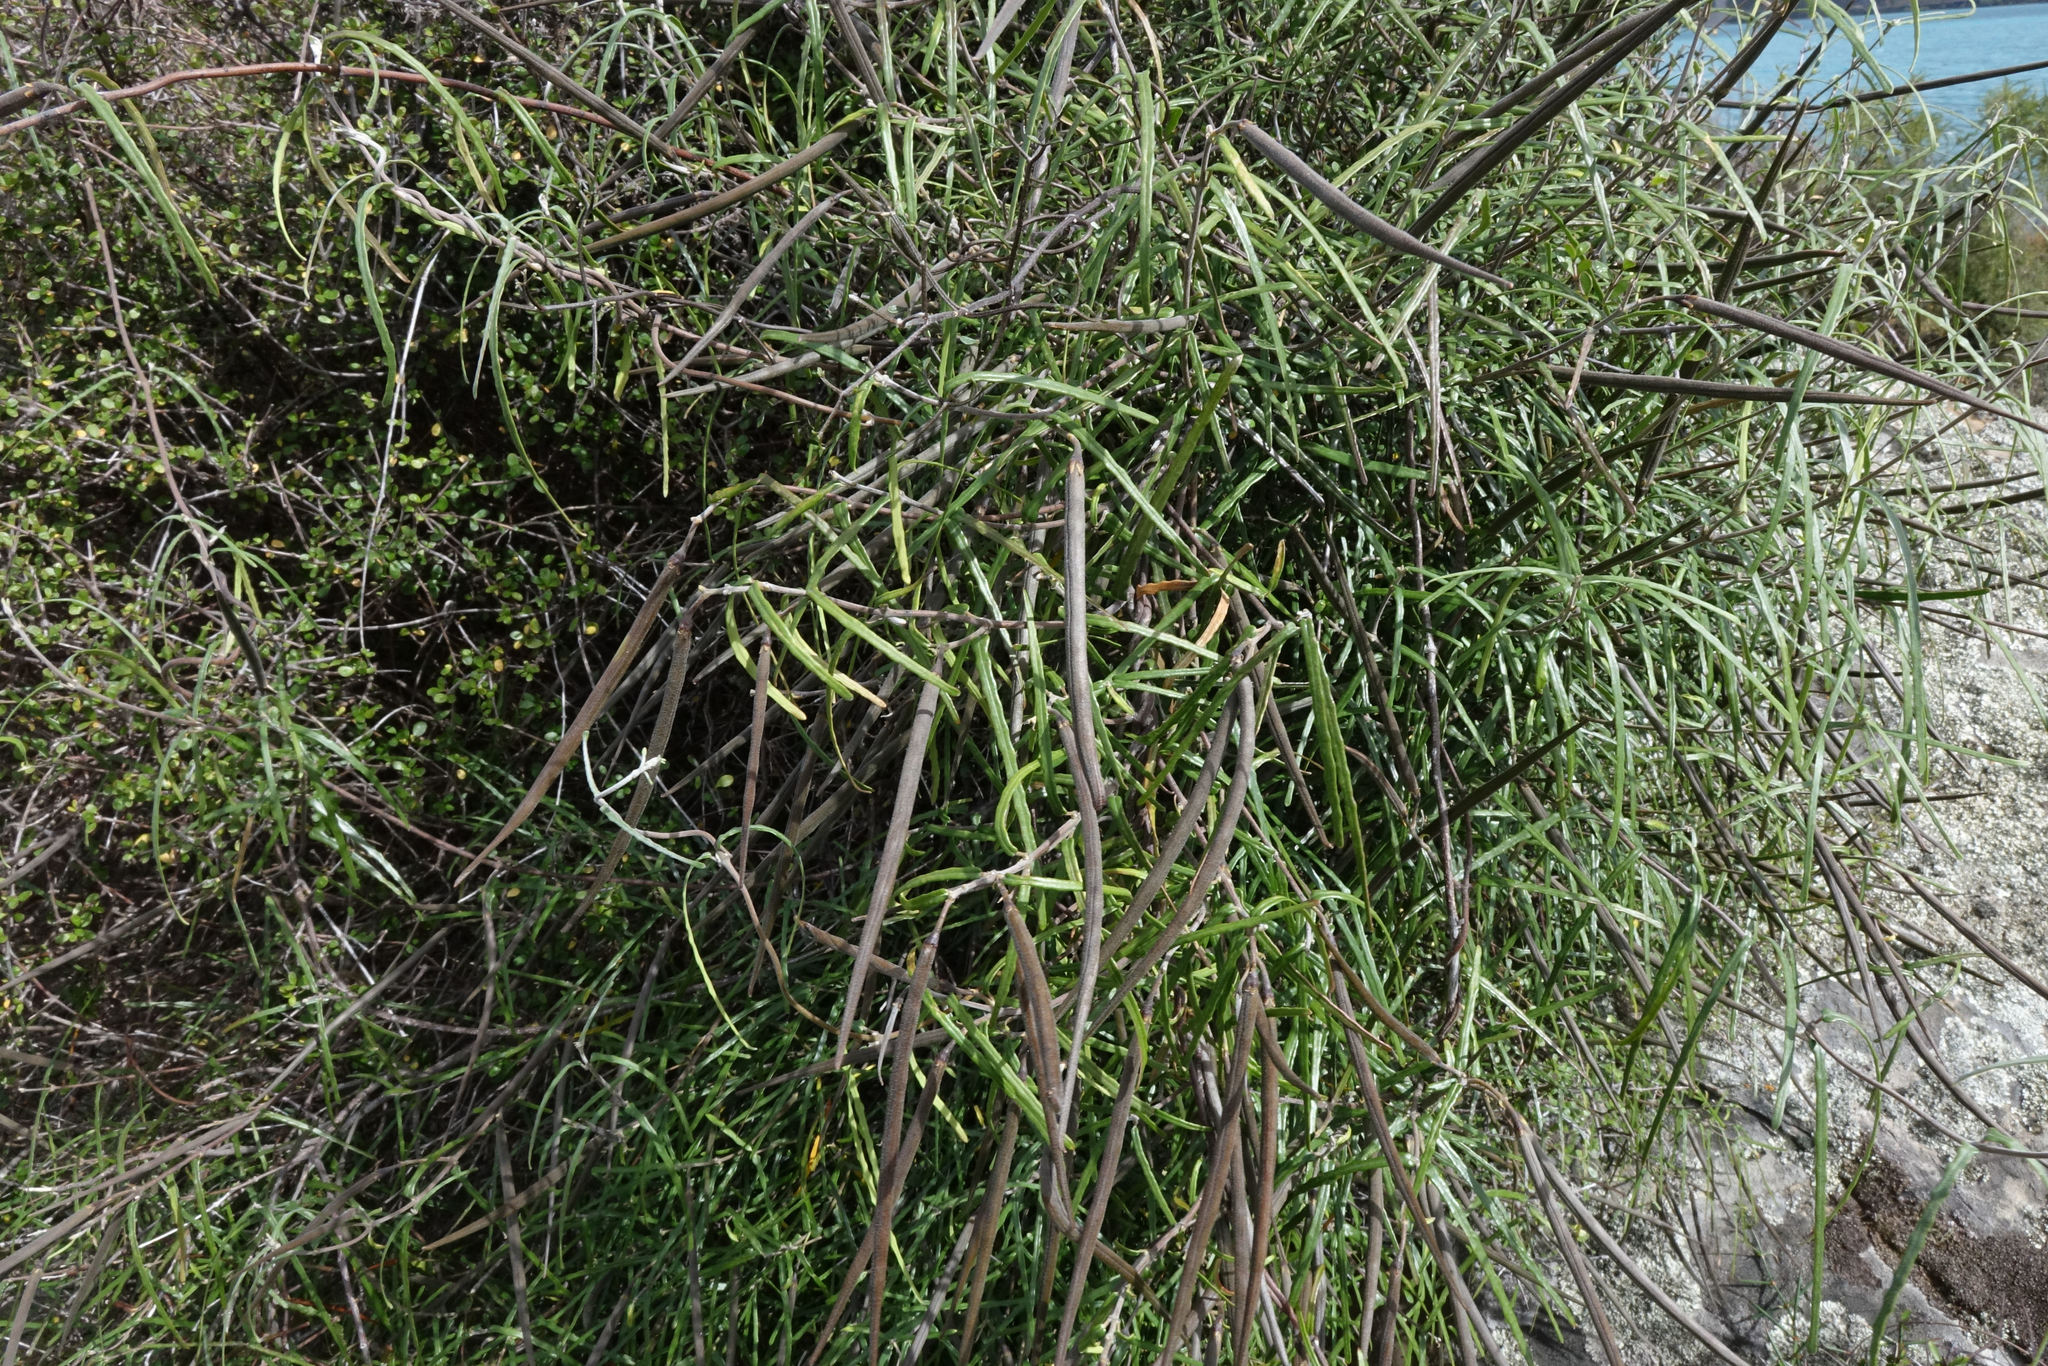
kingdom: Plantae
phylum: Tracheophyta
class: Magnoliopsida
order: Gentianales
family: Apocynaceae
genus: Parsonsia
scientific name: Parsonsia capsularis
